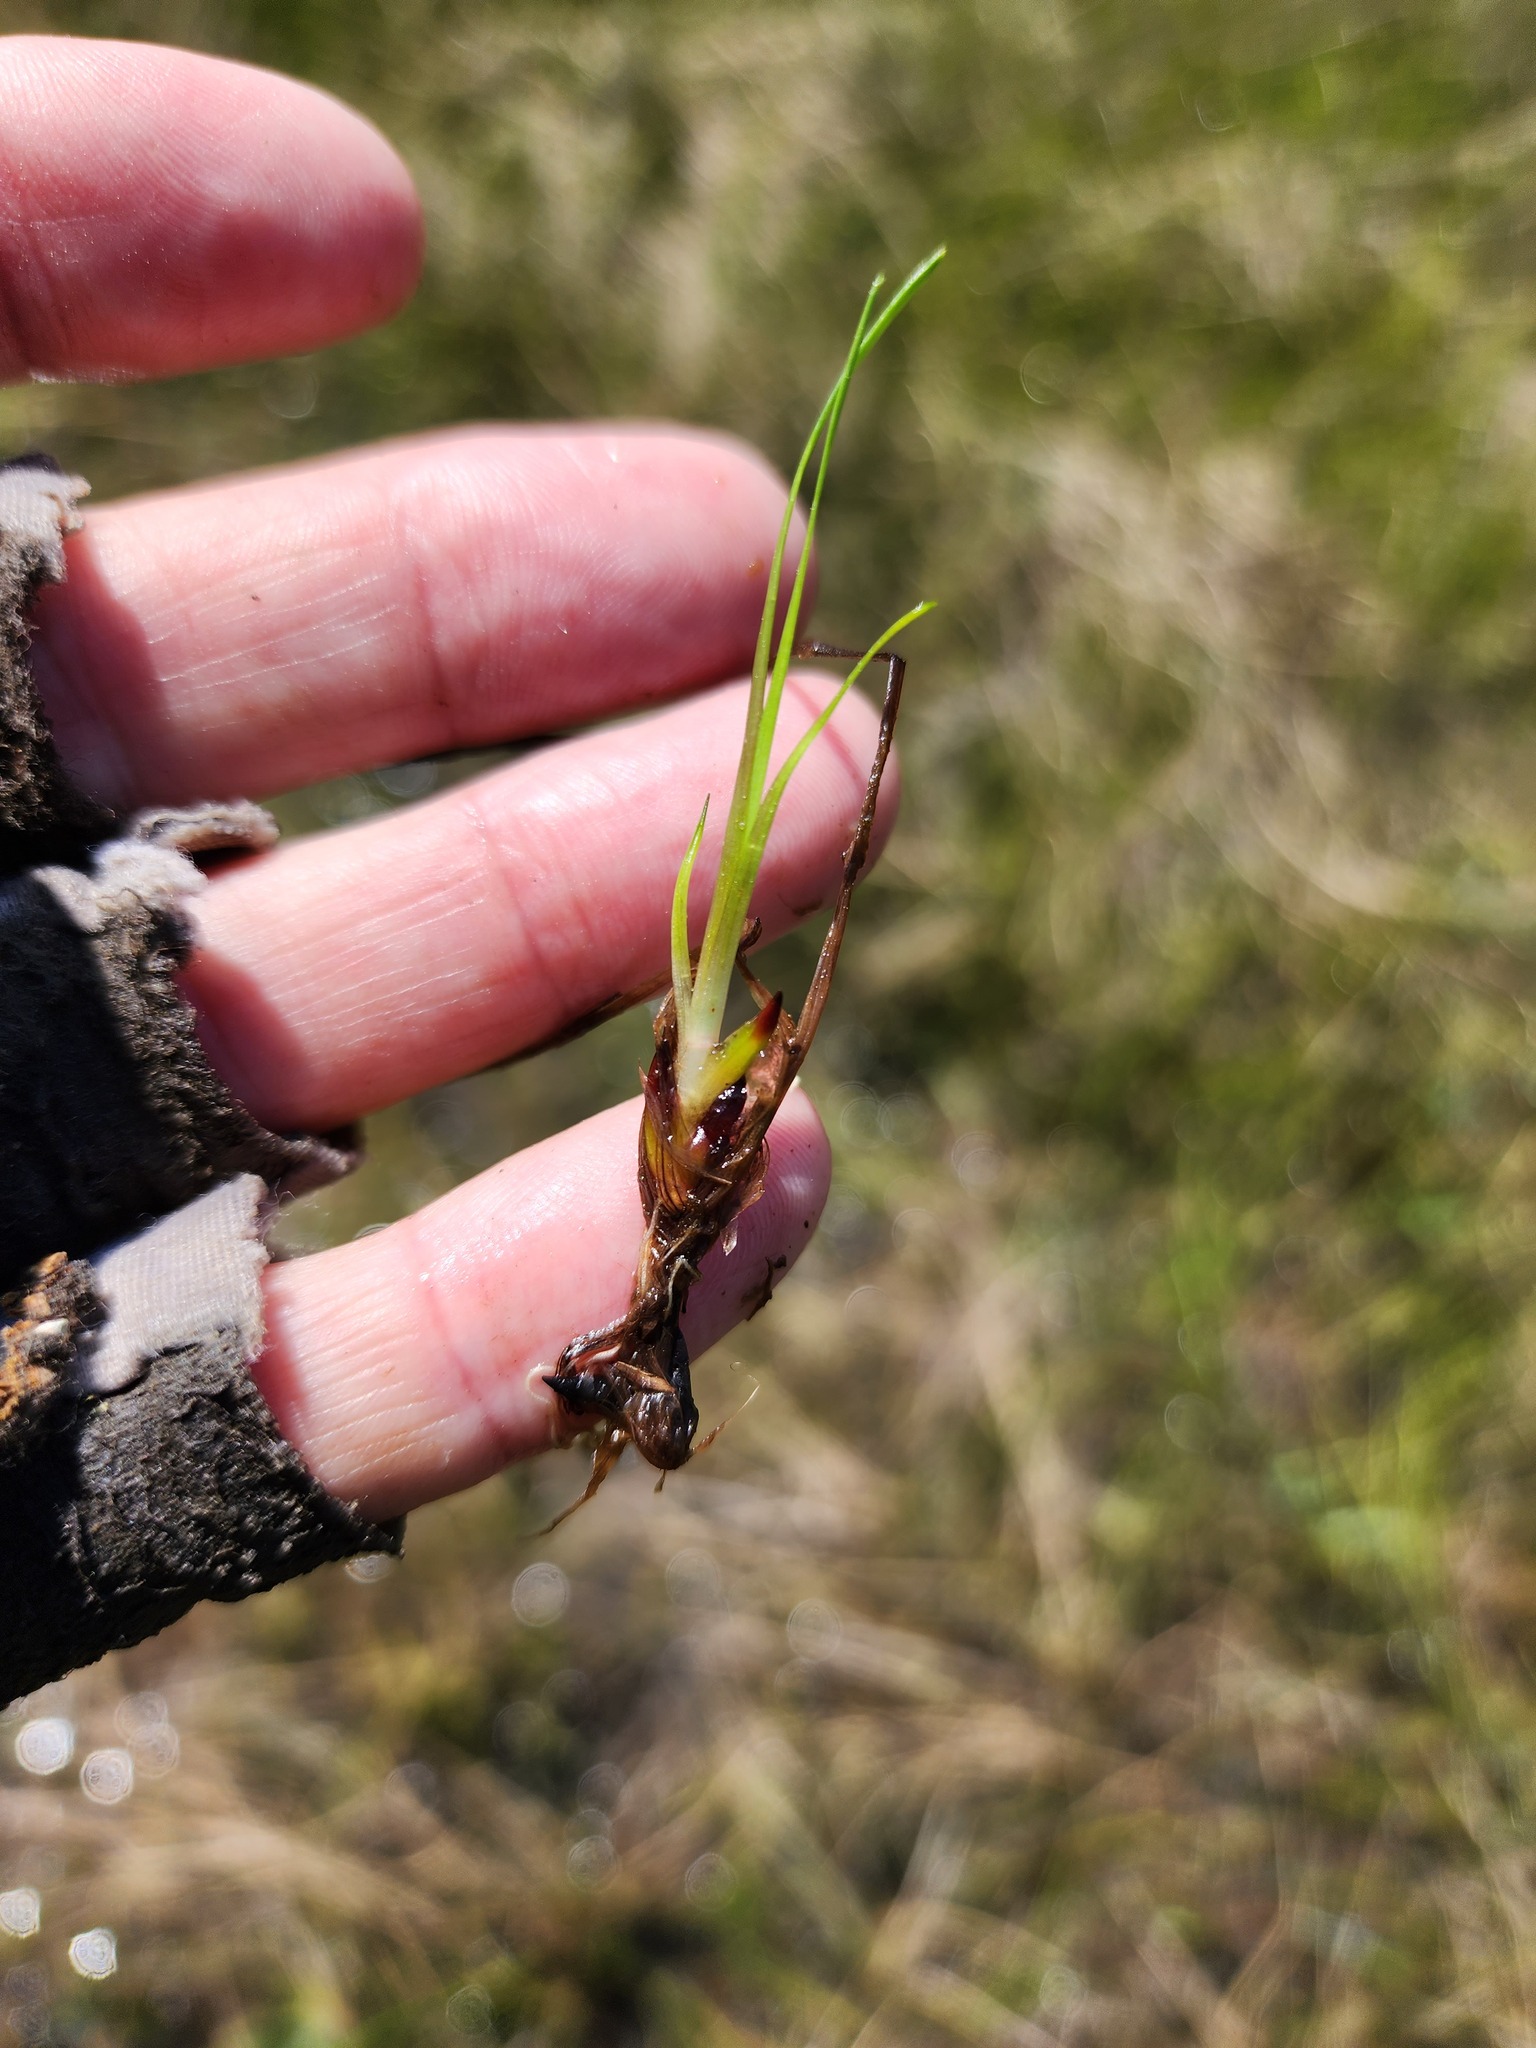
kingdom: Plantae
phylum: Tracheophyta
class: Liliopsida
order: Poales
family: Xyridaceae
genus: Xyris
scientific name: Xyris montana
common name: Northern yellow-eyed-grass
